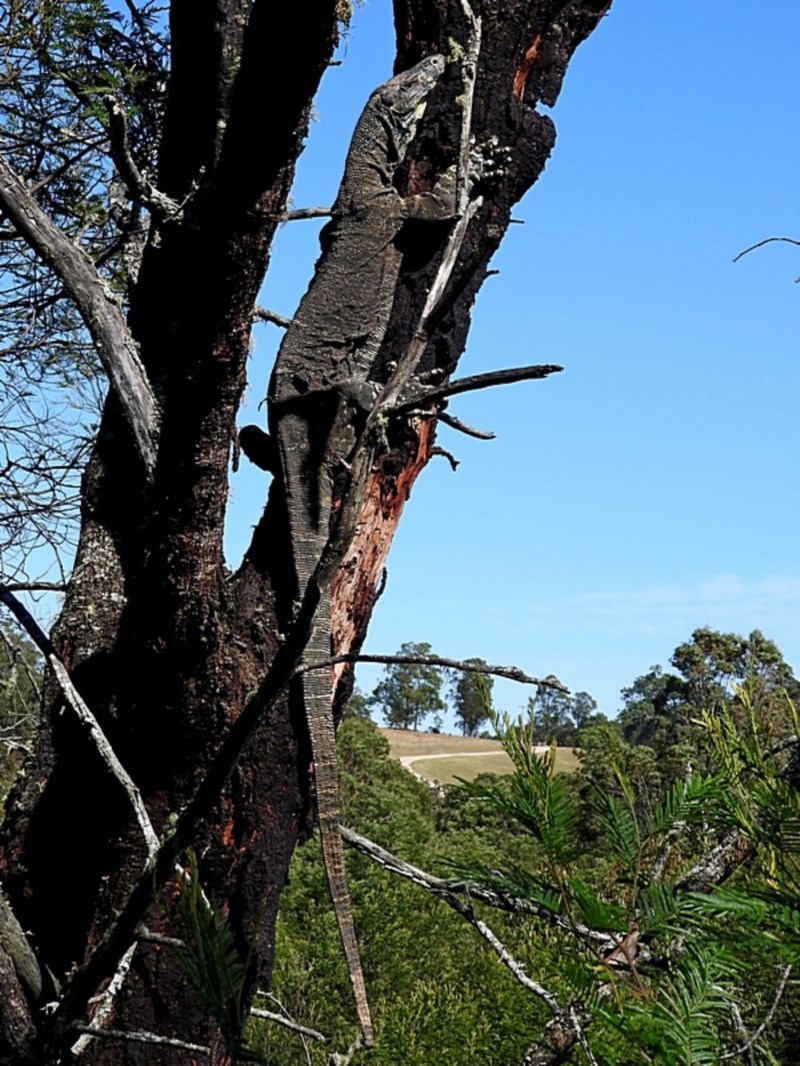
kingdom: Animalia
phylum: Chordata
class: Squamata
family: Varanidae
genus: Varanus
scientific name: Varanus varius
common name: Lace monitor
